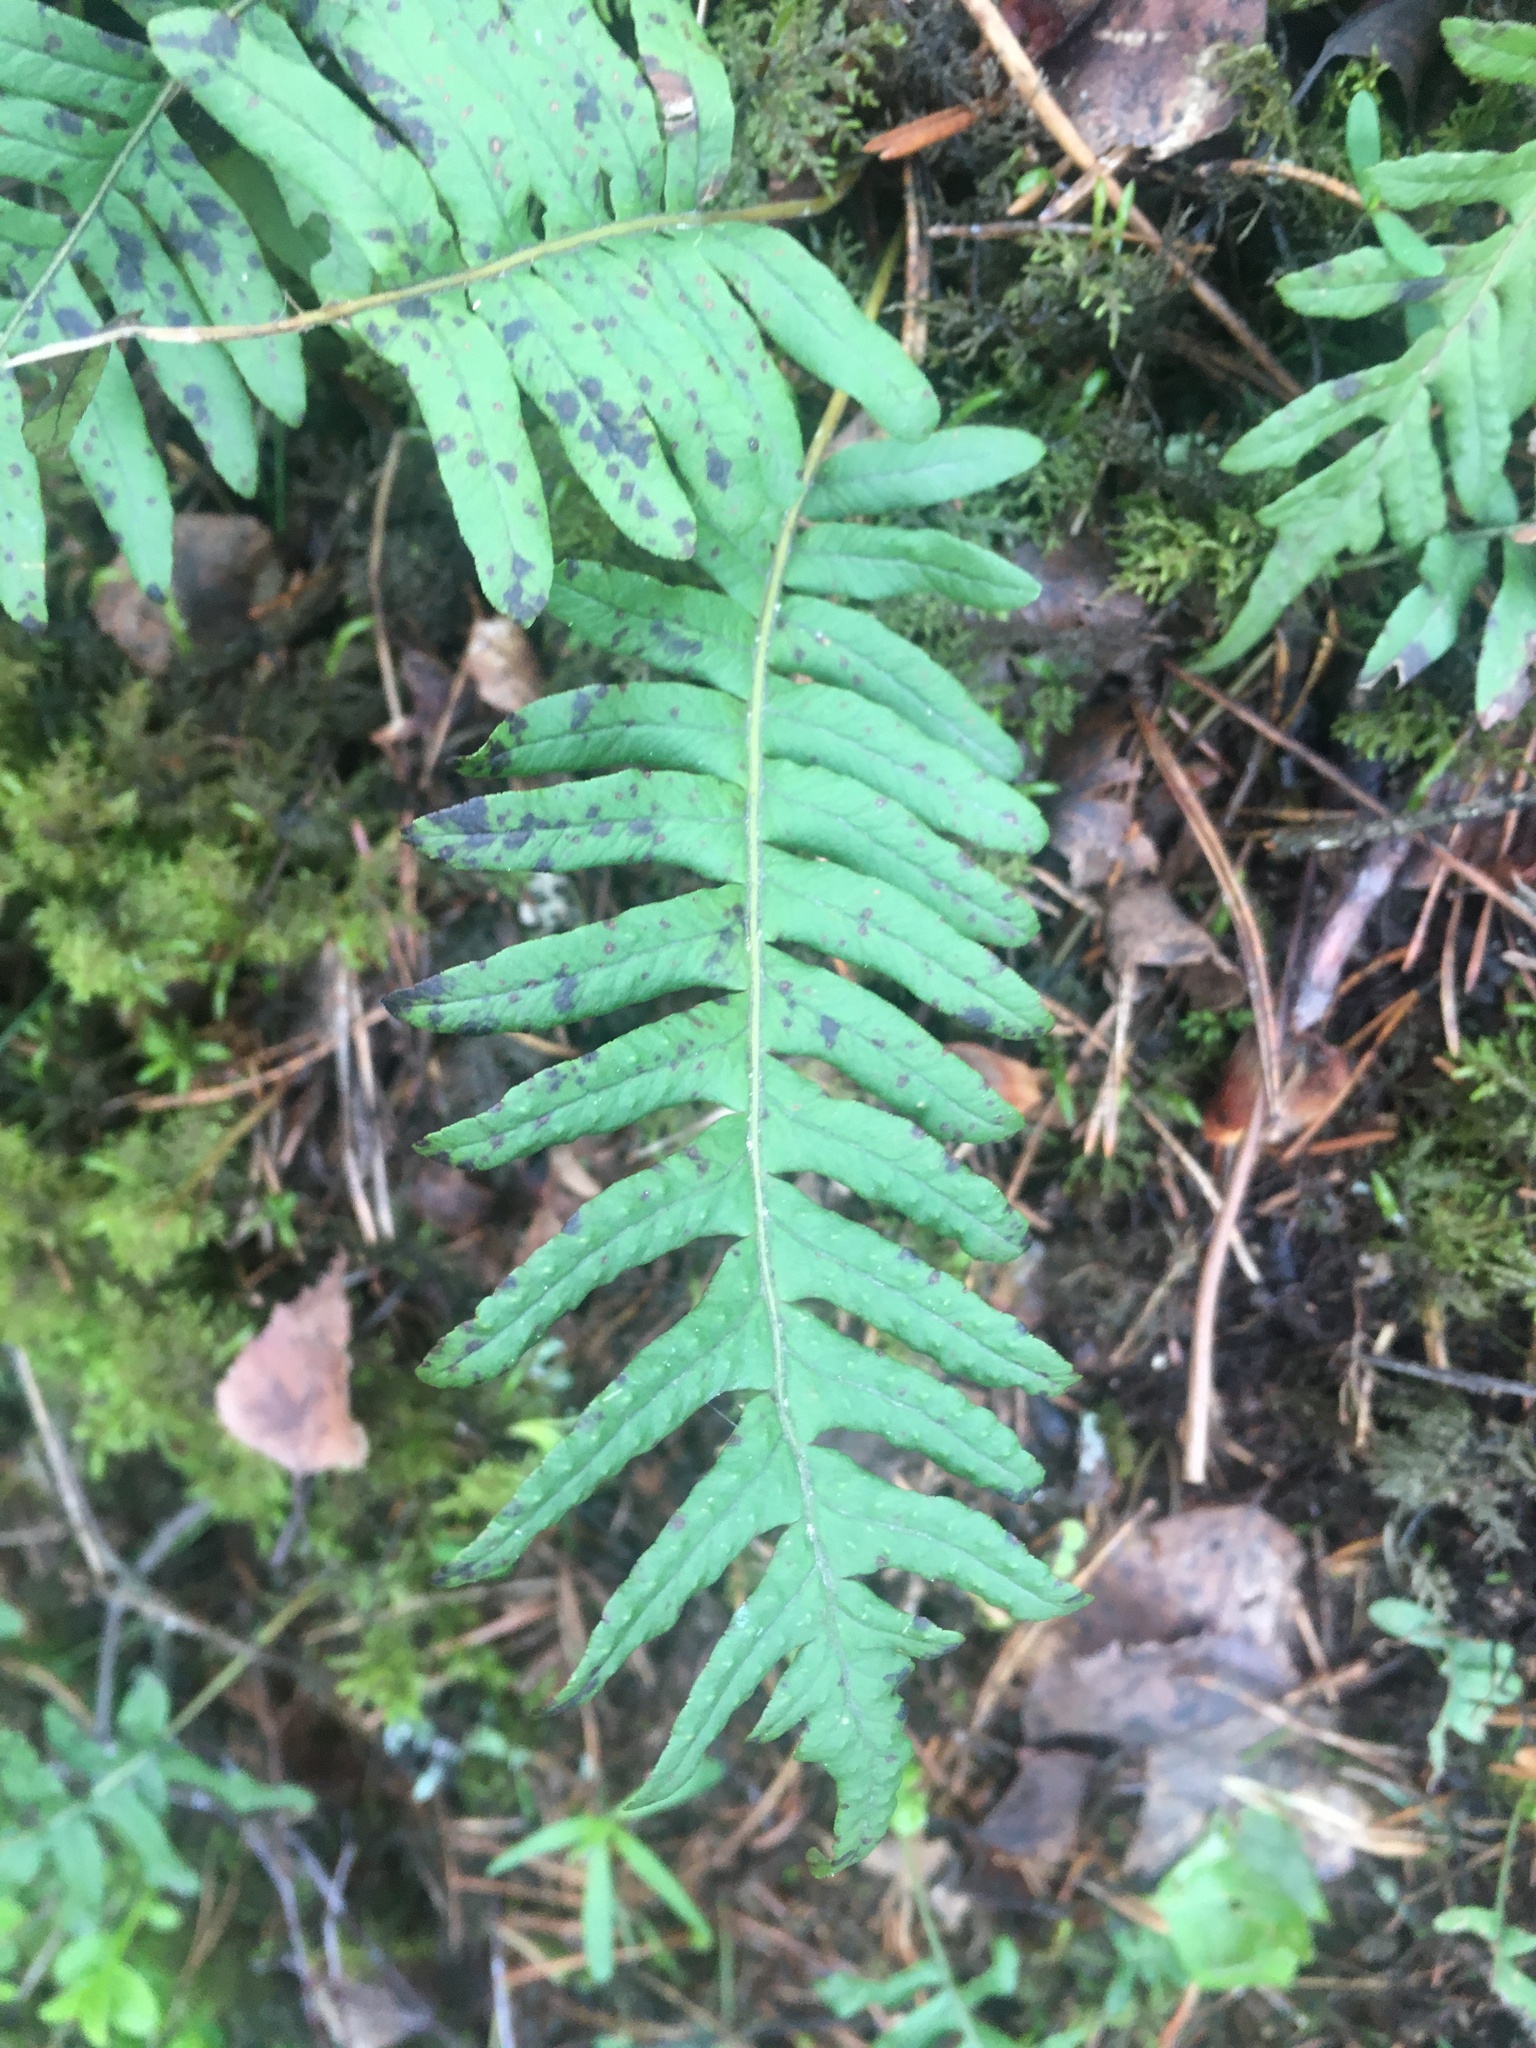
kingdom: Plantae
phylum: Tracheophyta
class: Polypodiopsida
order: Polypodiales
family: Polypodiaceae
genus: Polypodium
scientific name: Polypodium vulgare
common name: Common polypody
